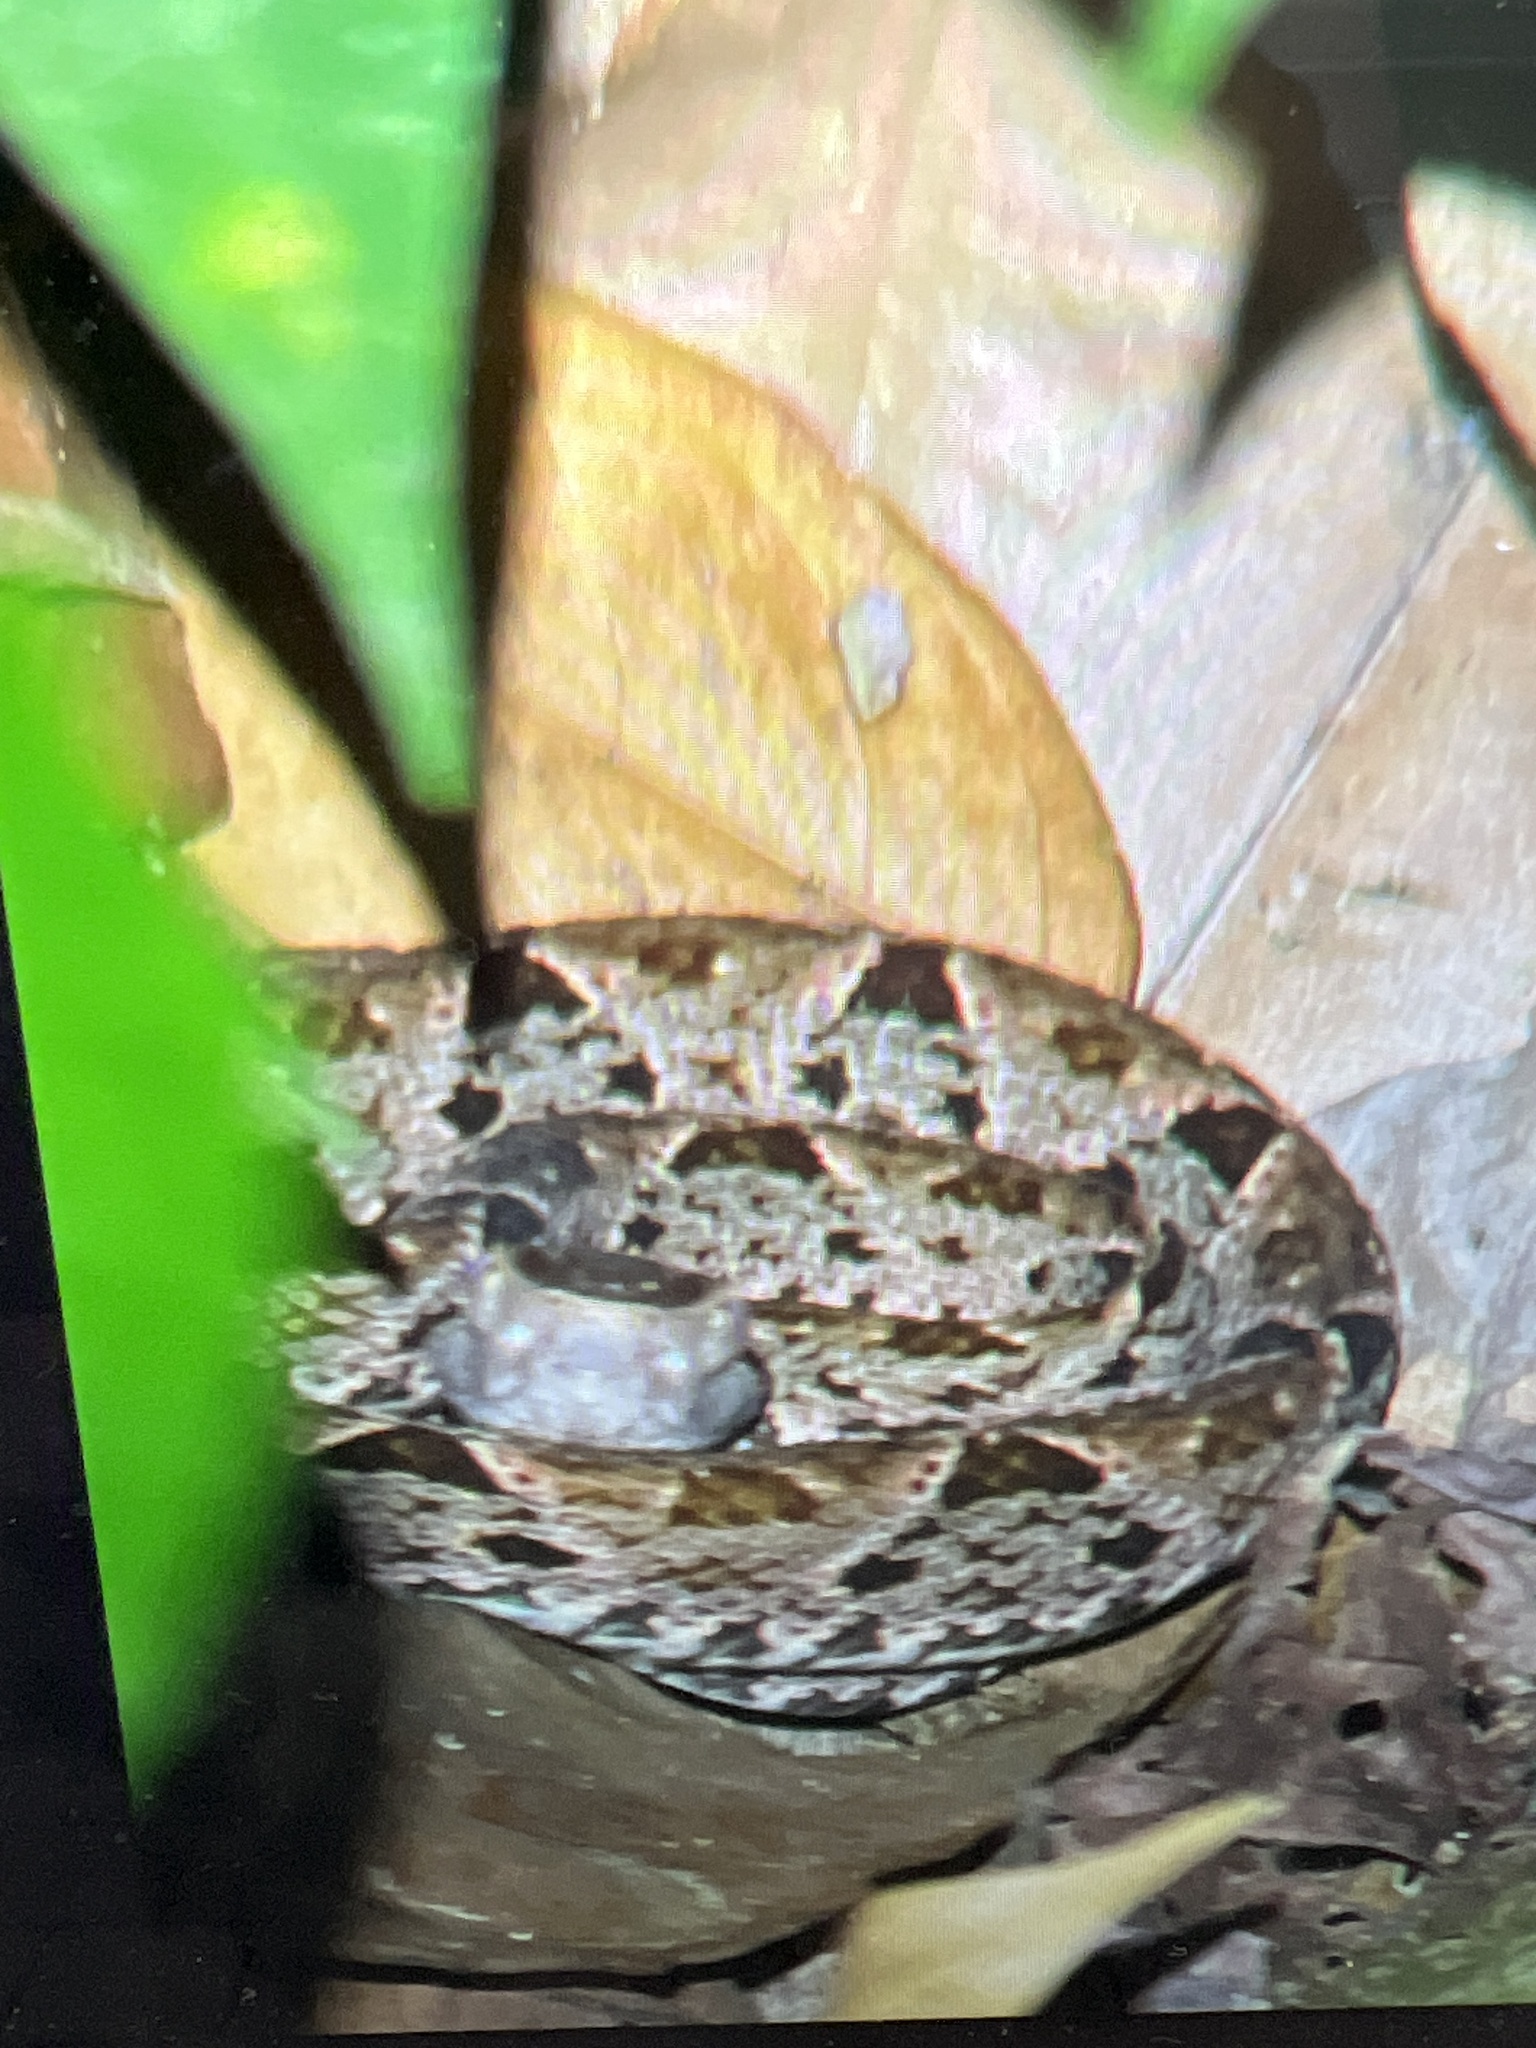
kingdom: Animalia
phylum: Chordata
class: Squamata
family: Viperidae
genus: Bothrops
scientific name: Bothrops asper
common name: Terciopelo
